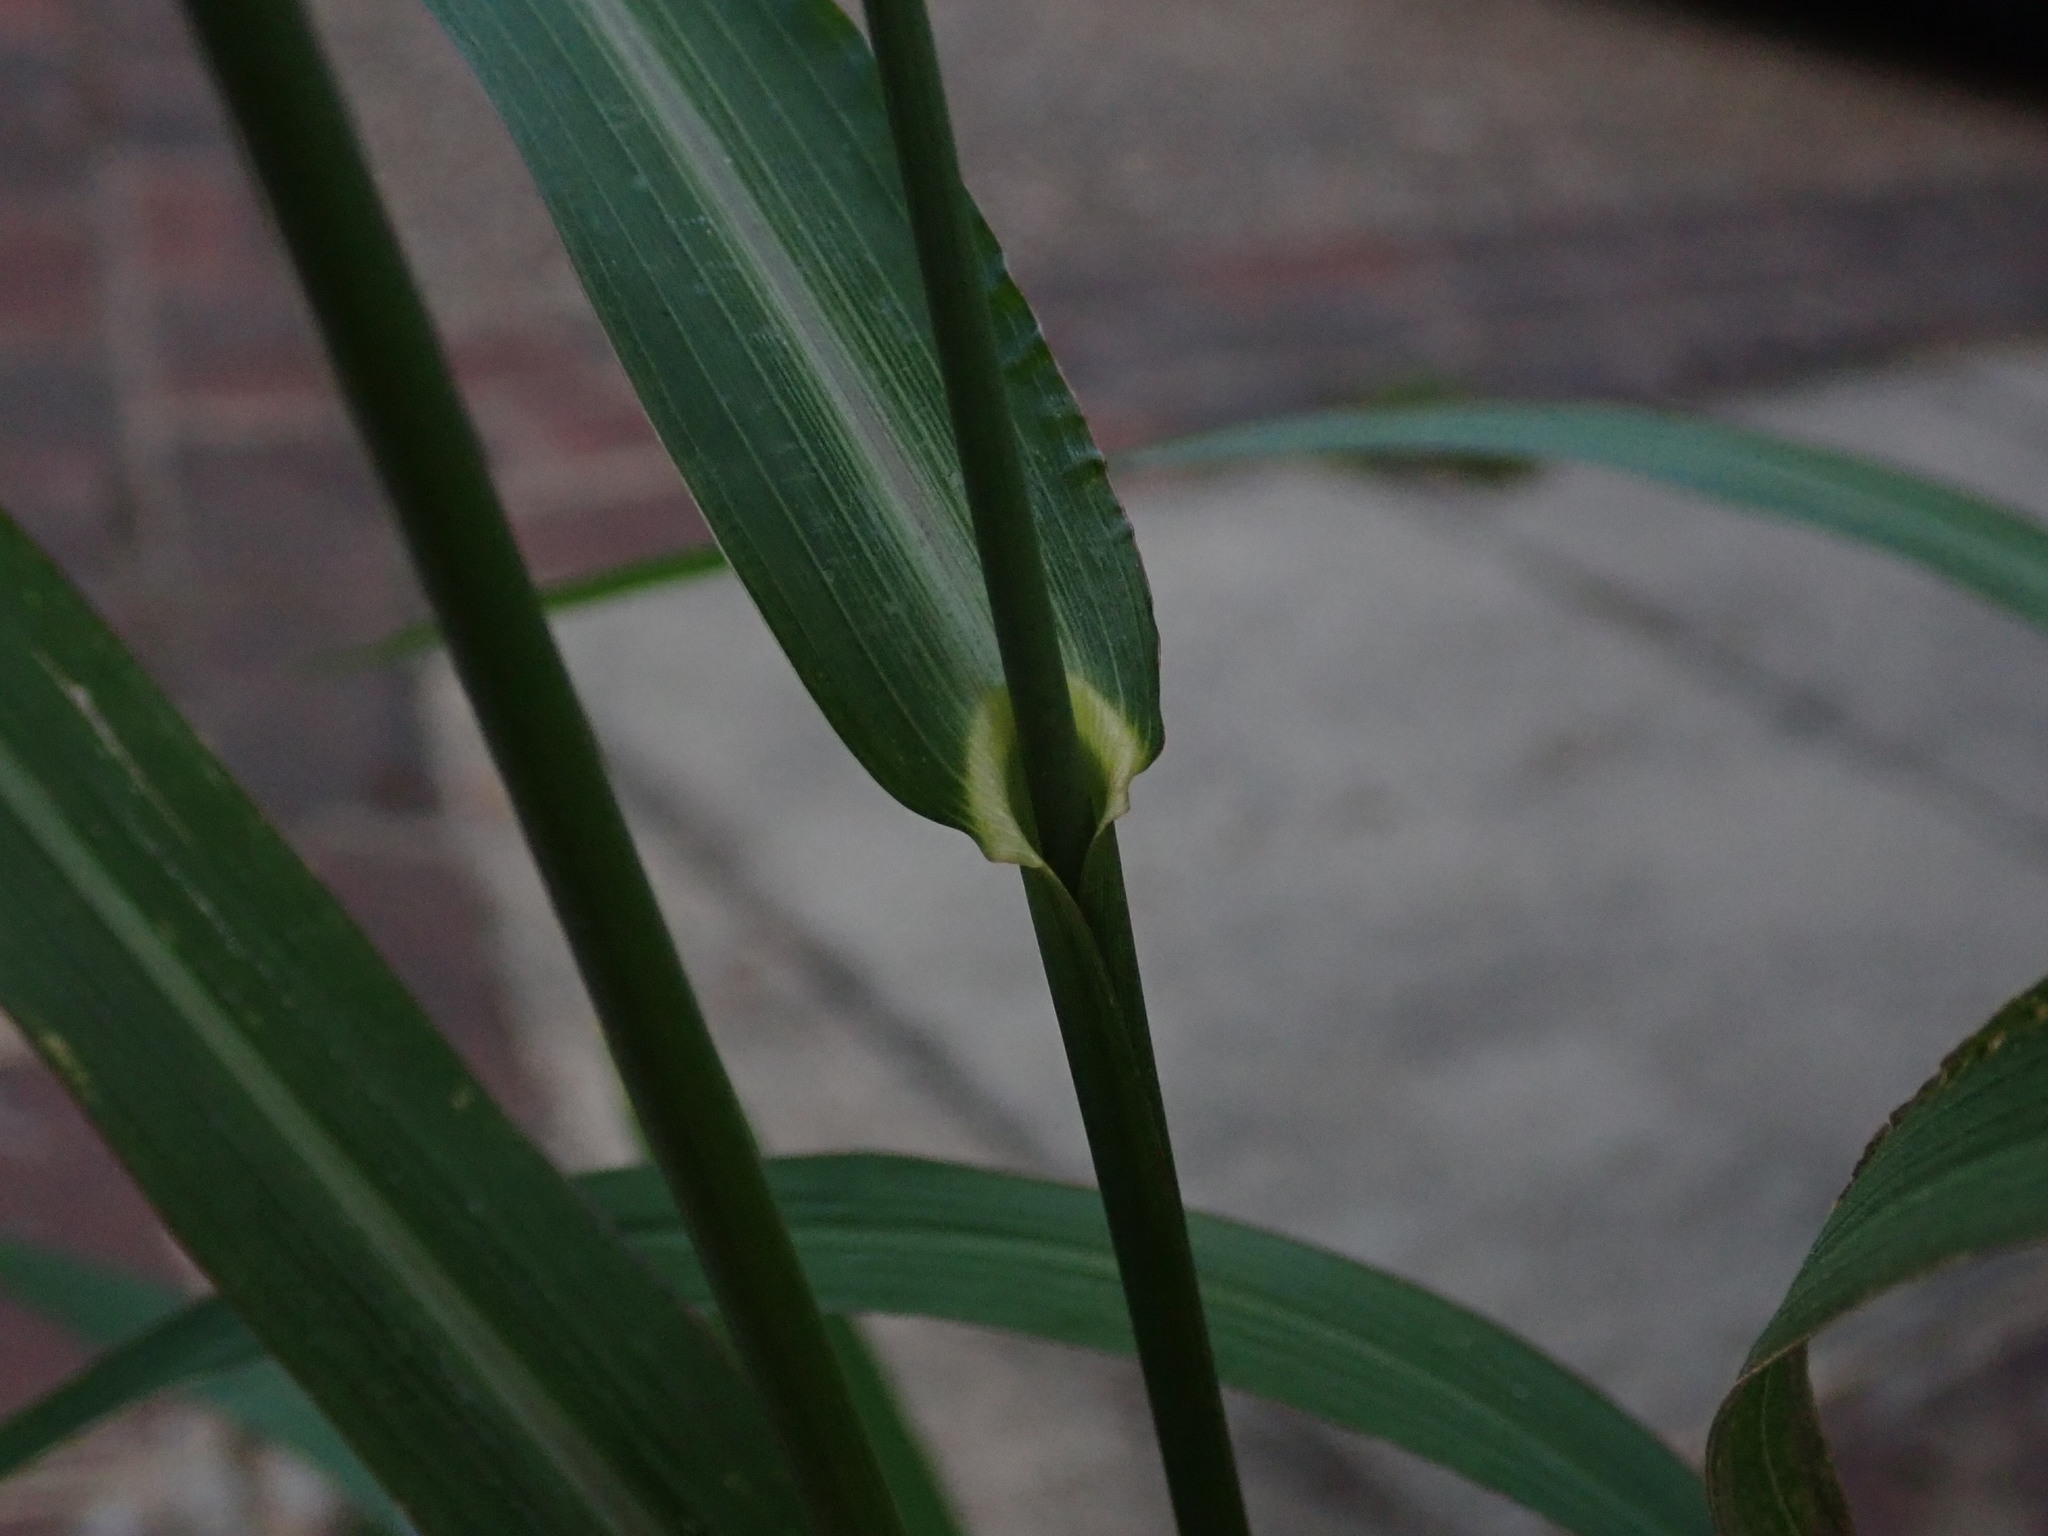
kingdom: Plantae
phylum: Tracheophyta
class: Liliopsida
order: Poales
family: Poaceae
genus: Echinochloa
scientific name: Echinochloa crus-galli
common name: Cockspur
